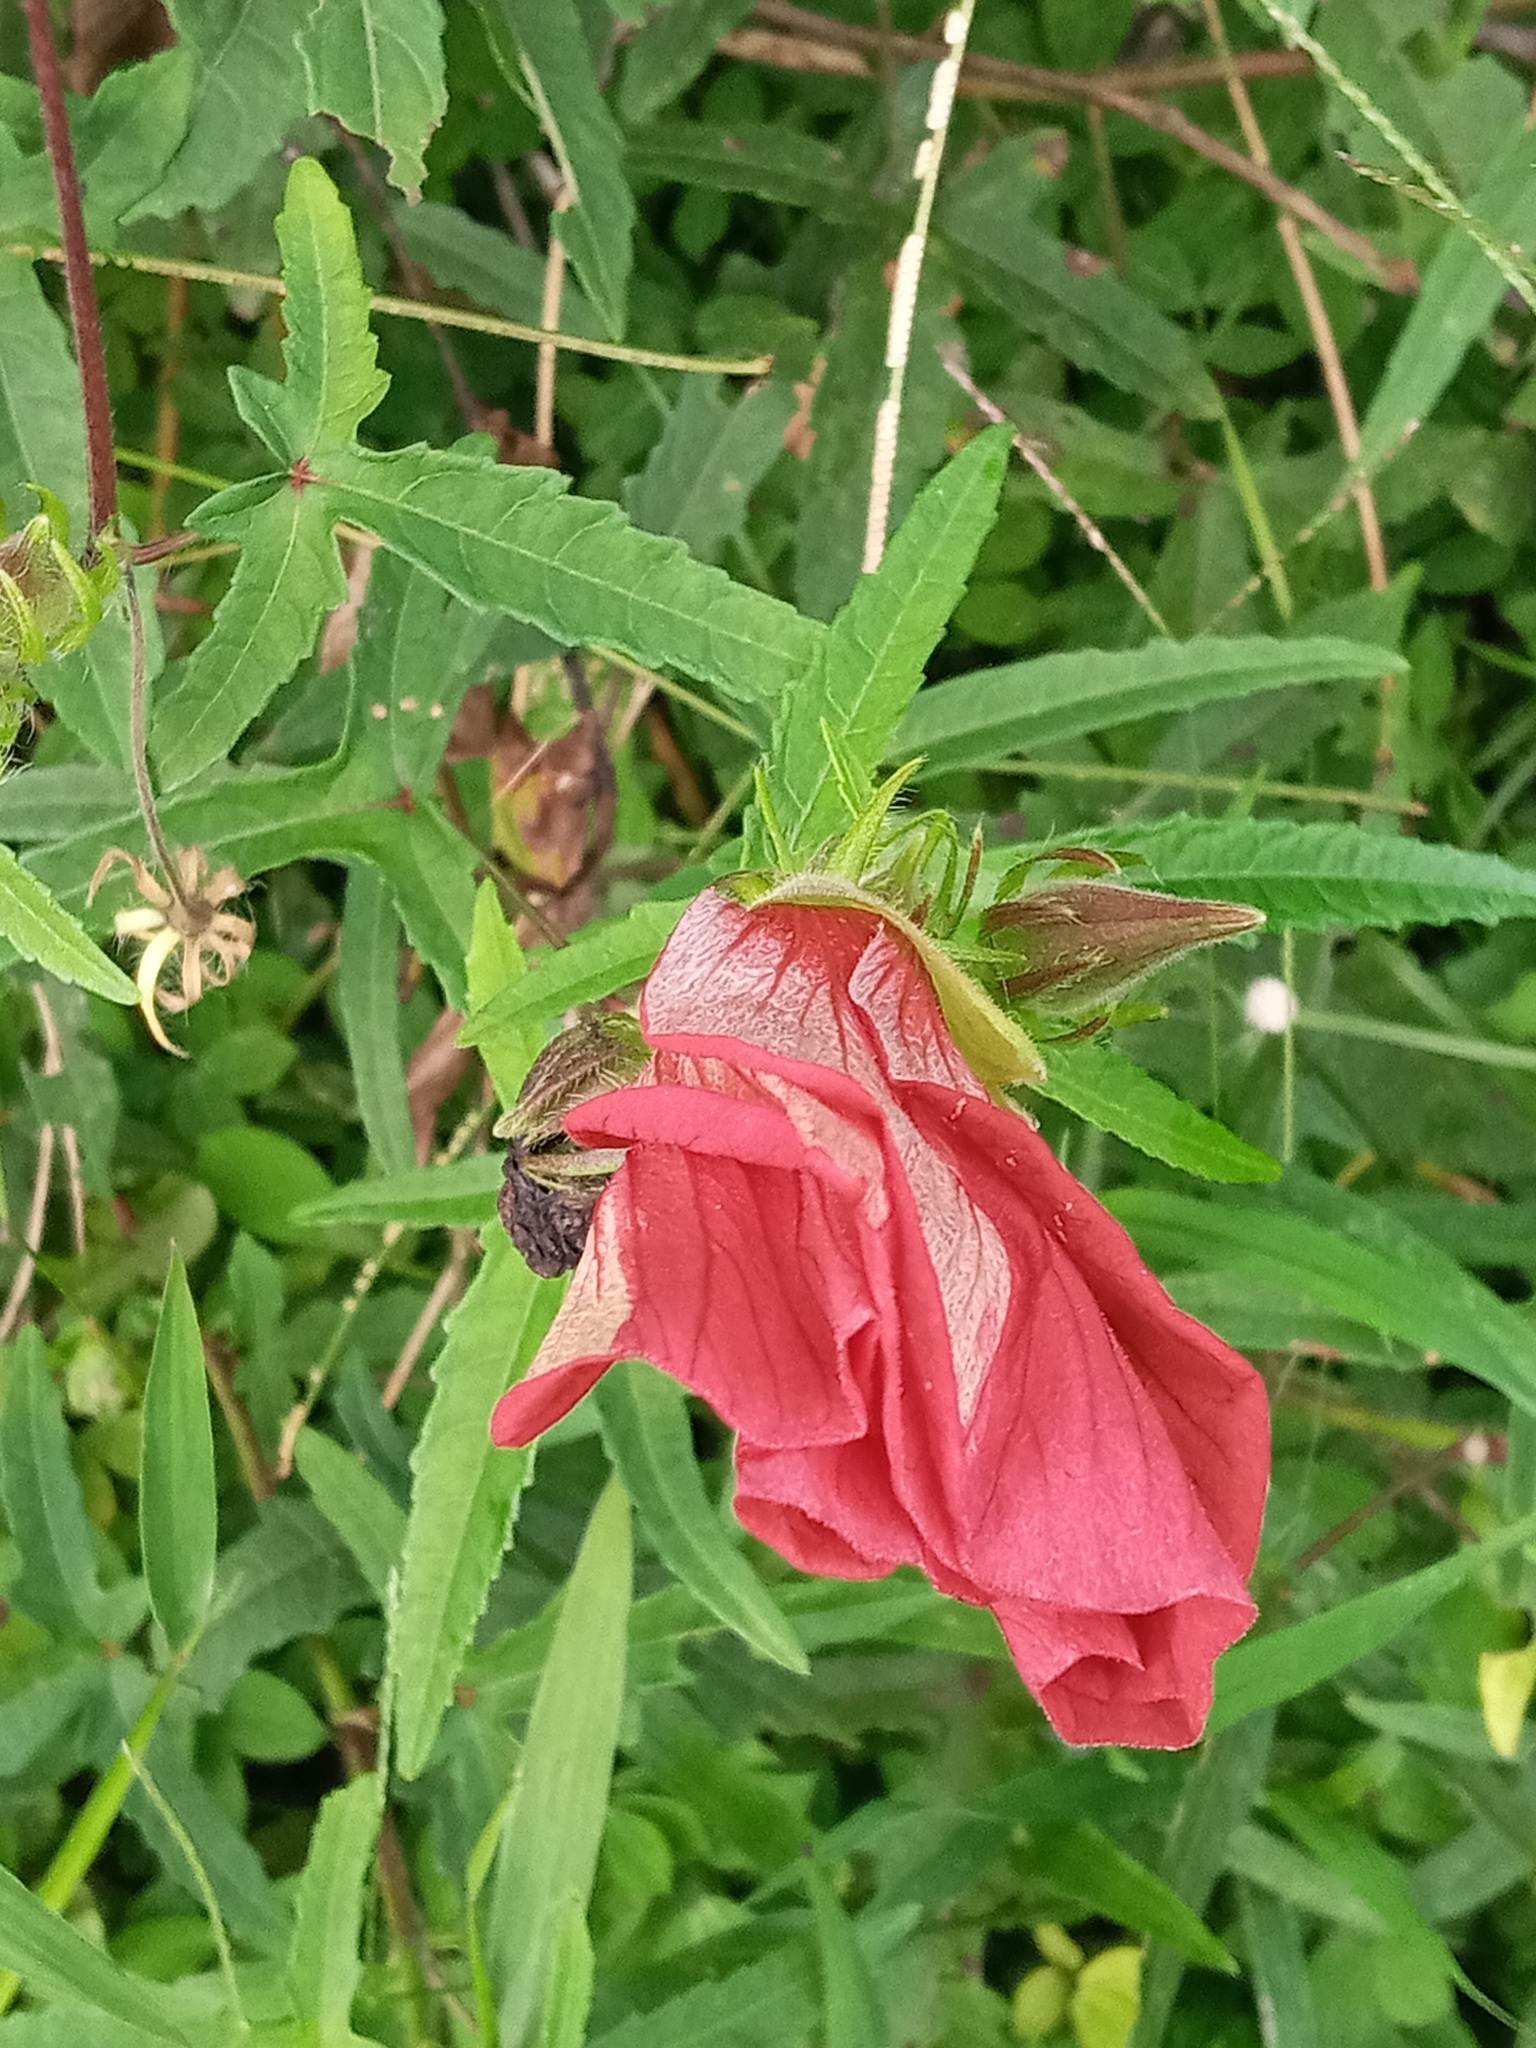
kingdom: Plantae
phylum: Tracheophyta
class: Magnoliopsida
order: Malvales
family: Malvaceae
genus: Abelmoschus
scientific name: Abelmoschus sagittifolius
